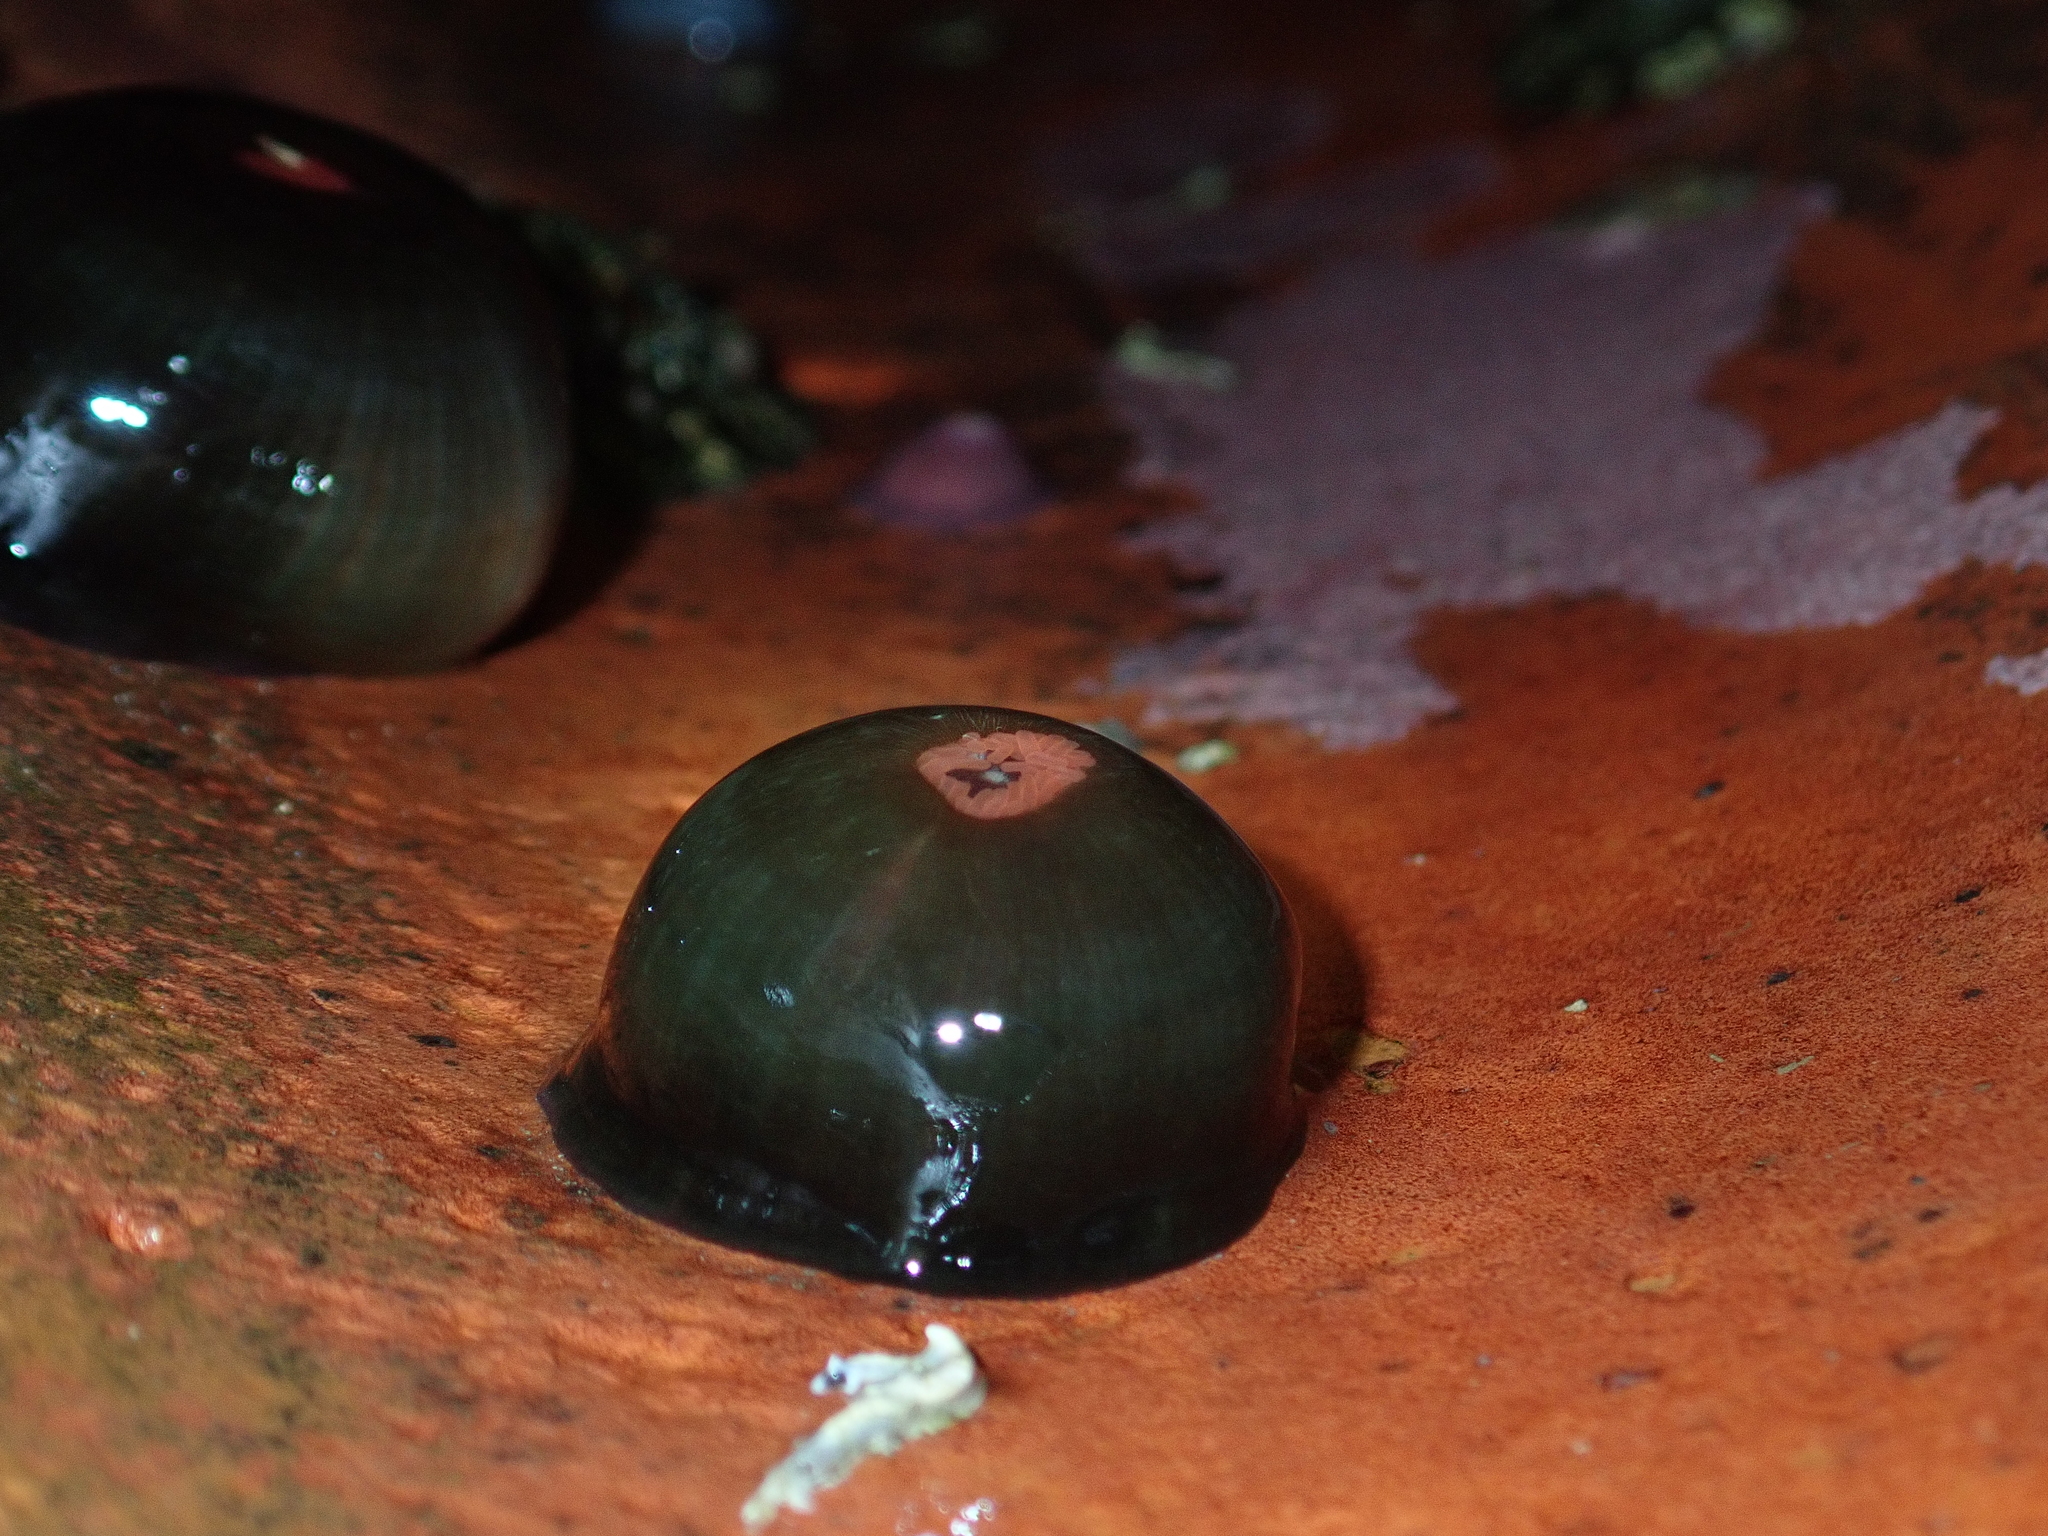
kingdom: Animalia
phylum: Cnidaria
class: Anthozoa
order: Actiniaria
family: Actiniidae
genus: Actinia
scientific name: Actinia tenebrosa
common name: Waratah anemone
